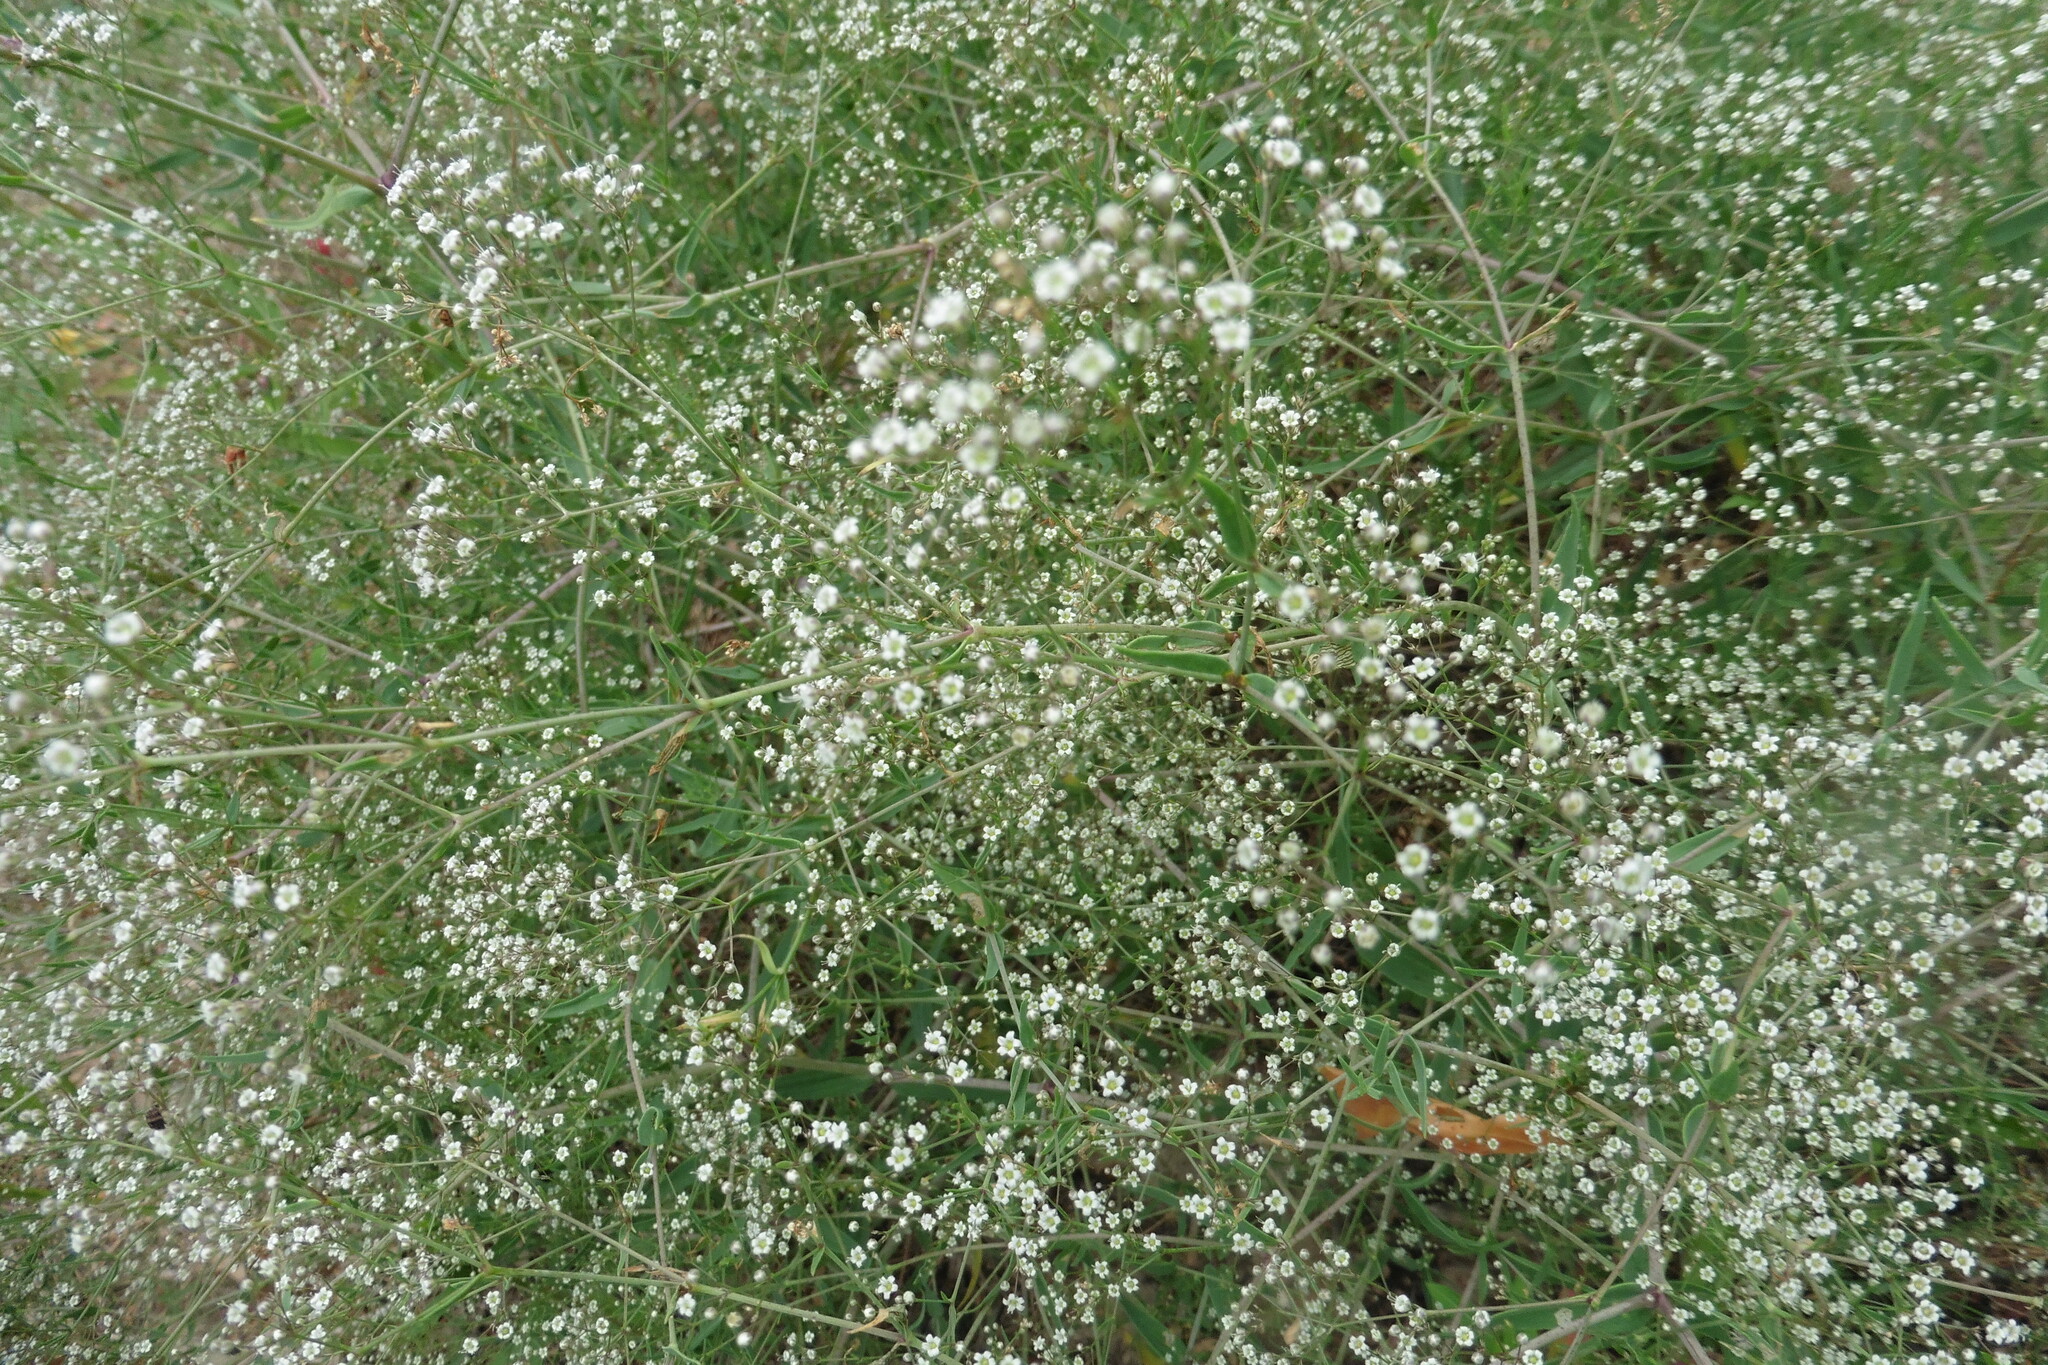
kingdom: Plantae
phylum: Tracheophyta
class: Magnoliopsida
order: Caryophyllales
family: Caryophyllaceae
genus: Gypsophila
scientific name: Gypsophila paniculata
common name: Baby's-breath
